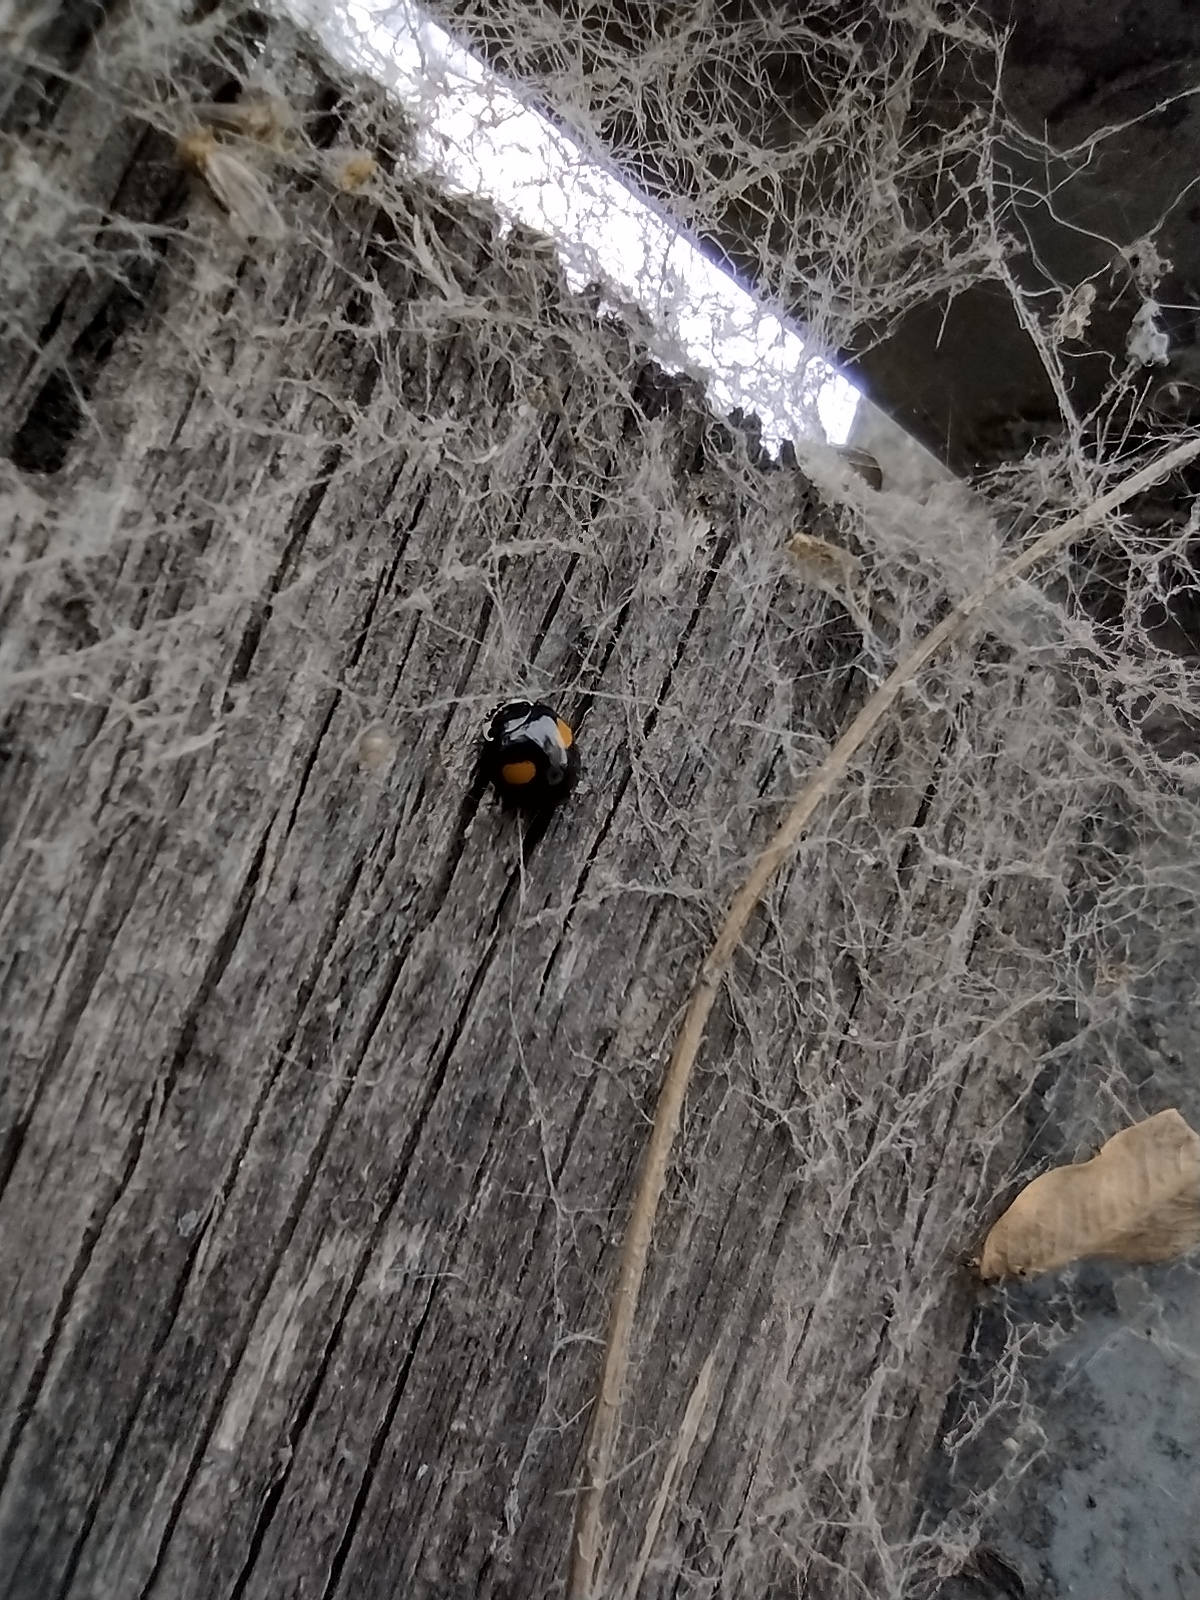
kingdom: Animalia
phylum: Arthropoda
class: Insecta
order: Coleoptera
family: Coccinellidae
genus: Olla
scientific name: Olla v-nigrum
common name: Ashy gray lady beetle
